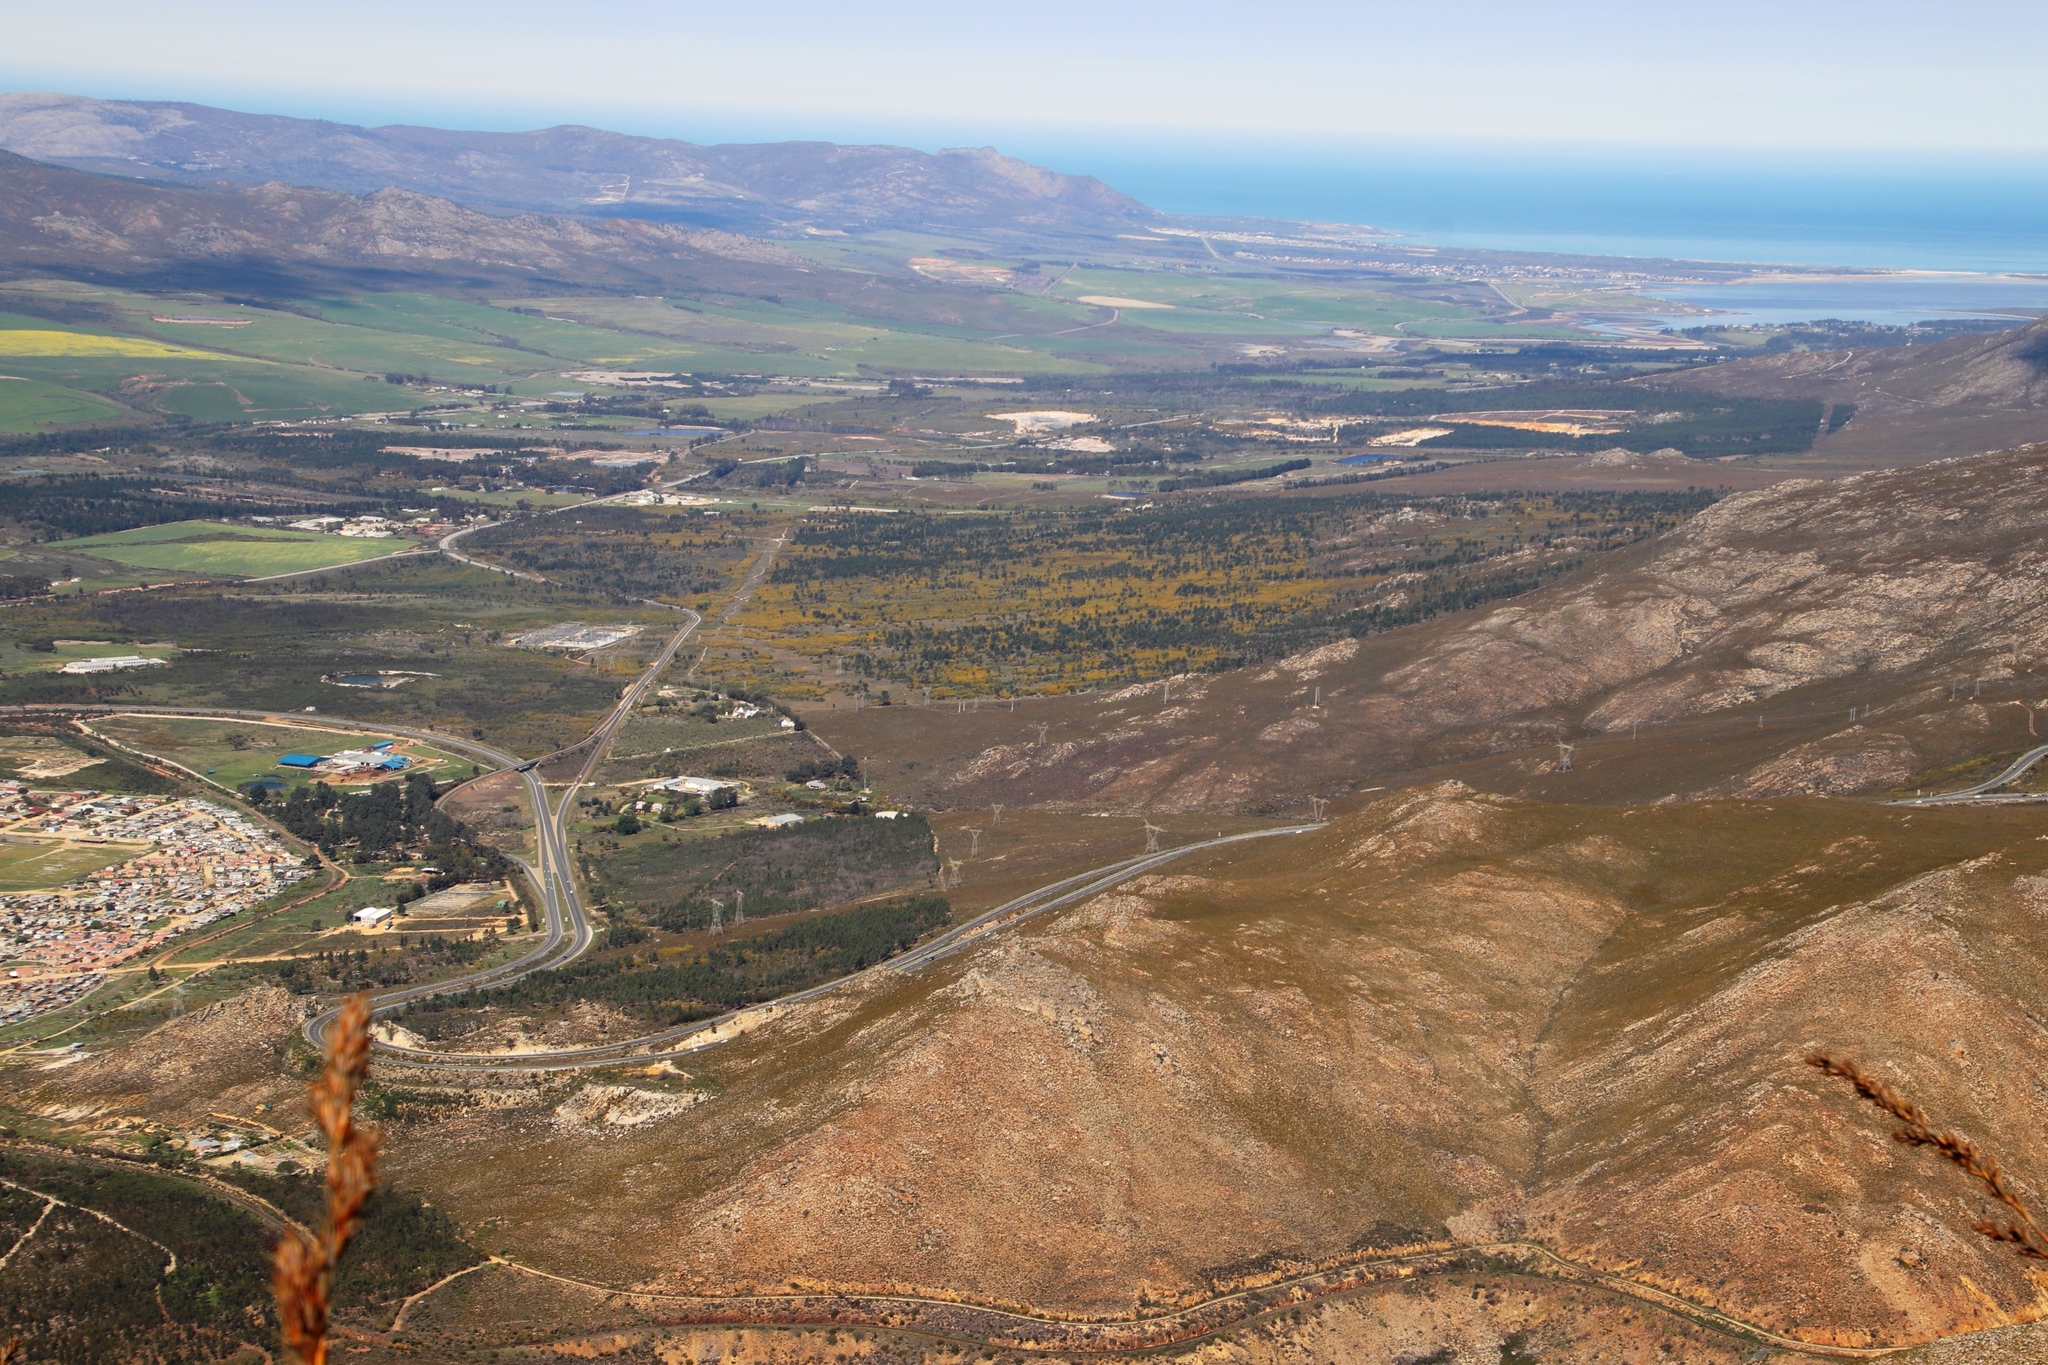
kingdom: Plantae
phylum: Tracheophyta
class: Magnoliopsida
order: Fabales
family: Fabaceae
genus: Acacia
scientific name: Acacia saligna
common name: Orange wattle
